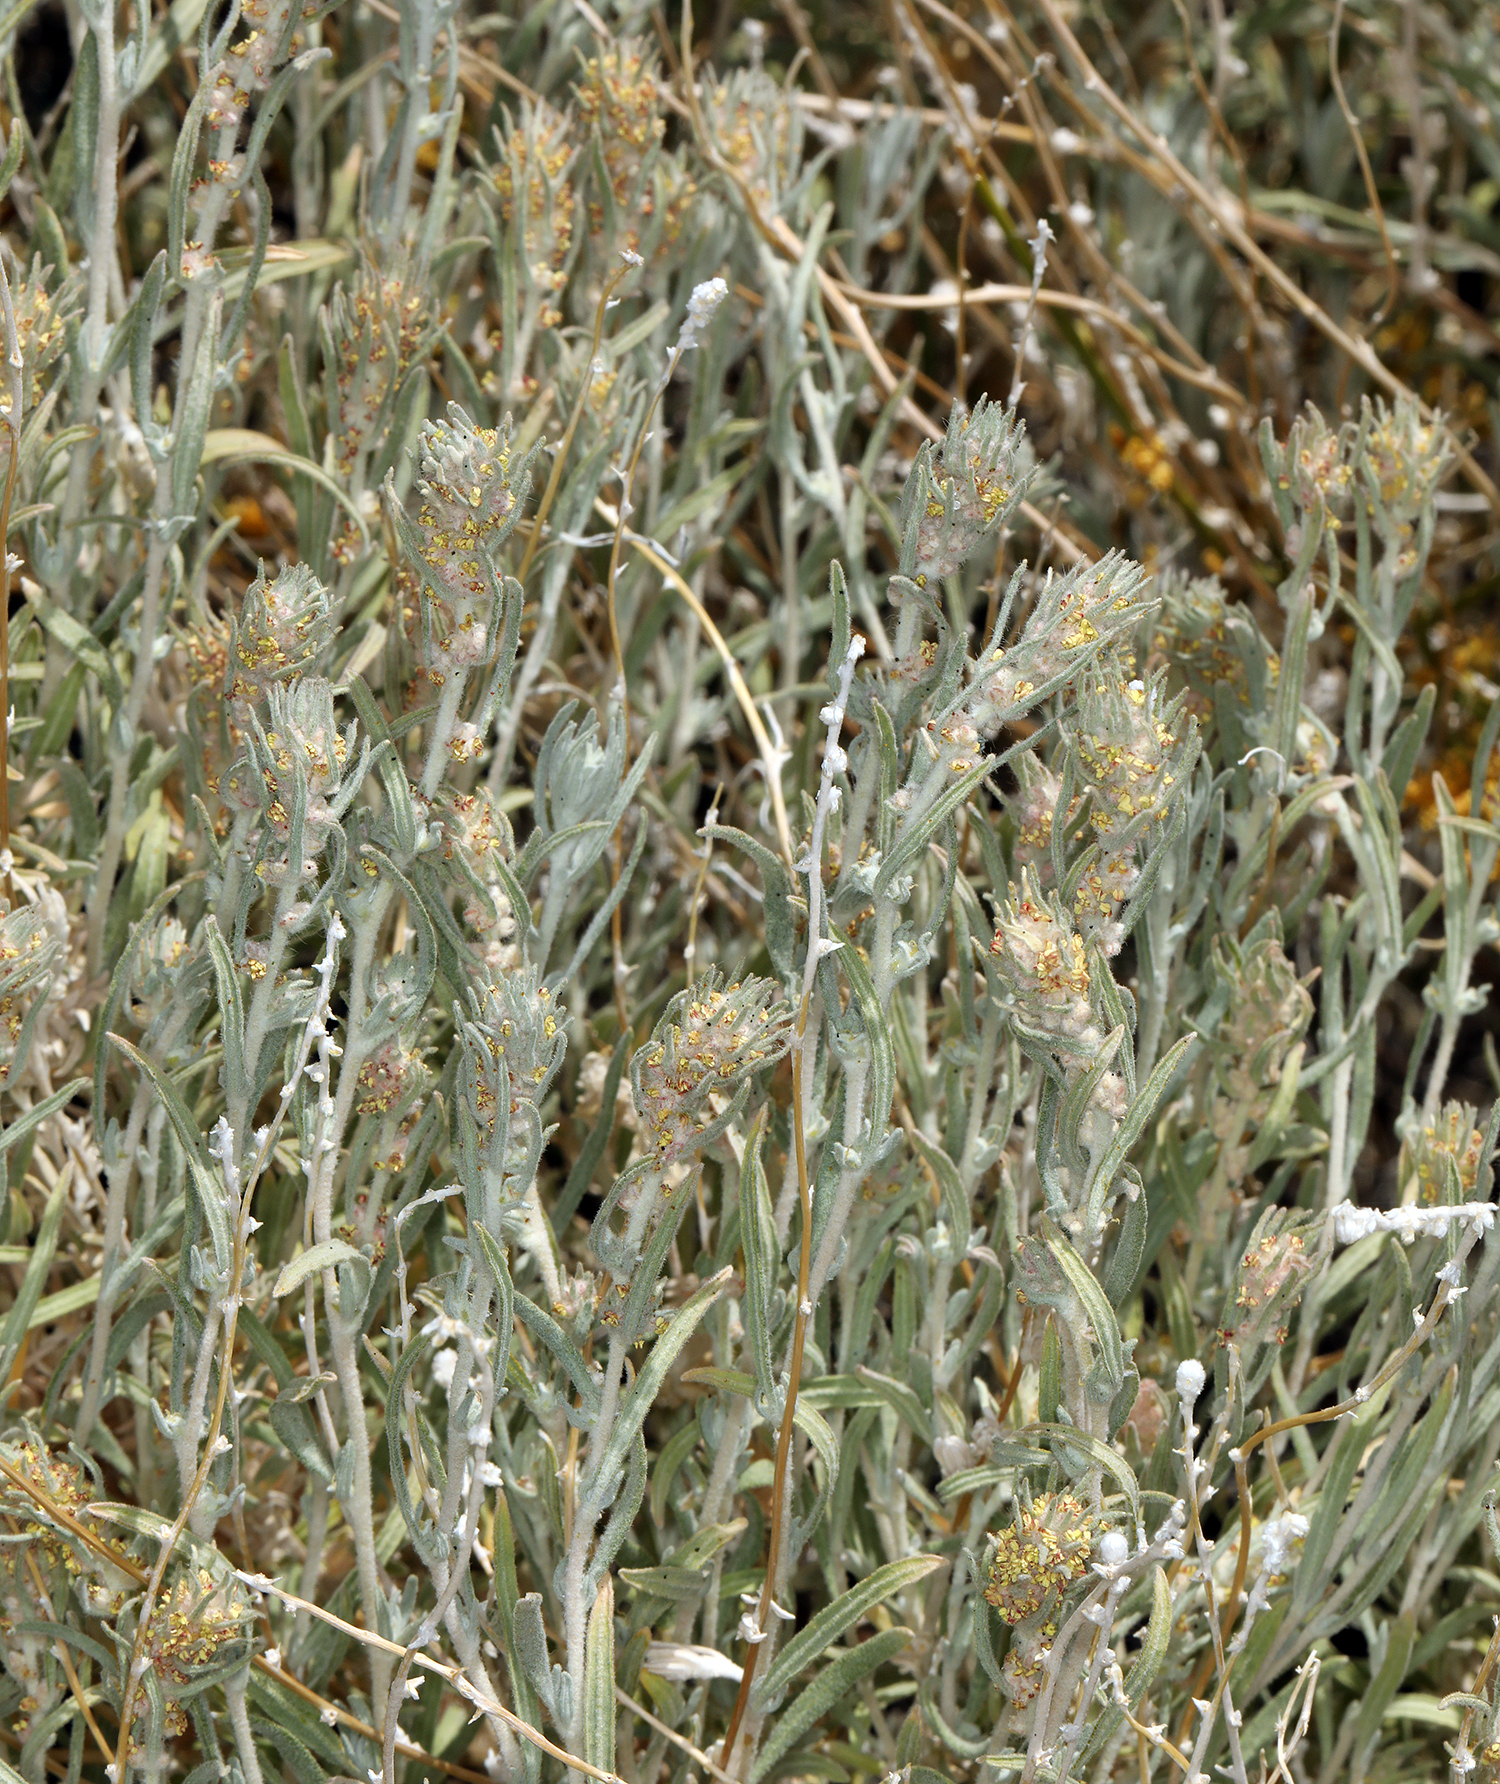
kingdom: Plantae
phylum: Tracheophyta
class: Magnoliopsida
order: Caryophyllales
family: Amaranthaceae
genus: Krascheninnikovia
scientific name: Krascheninnikovia lanata
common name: Winterfat
